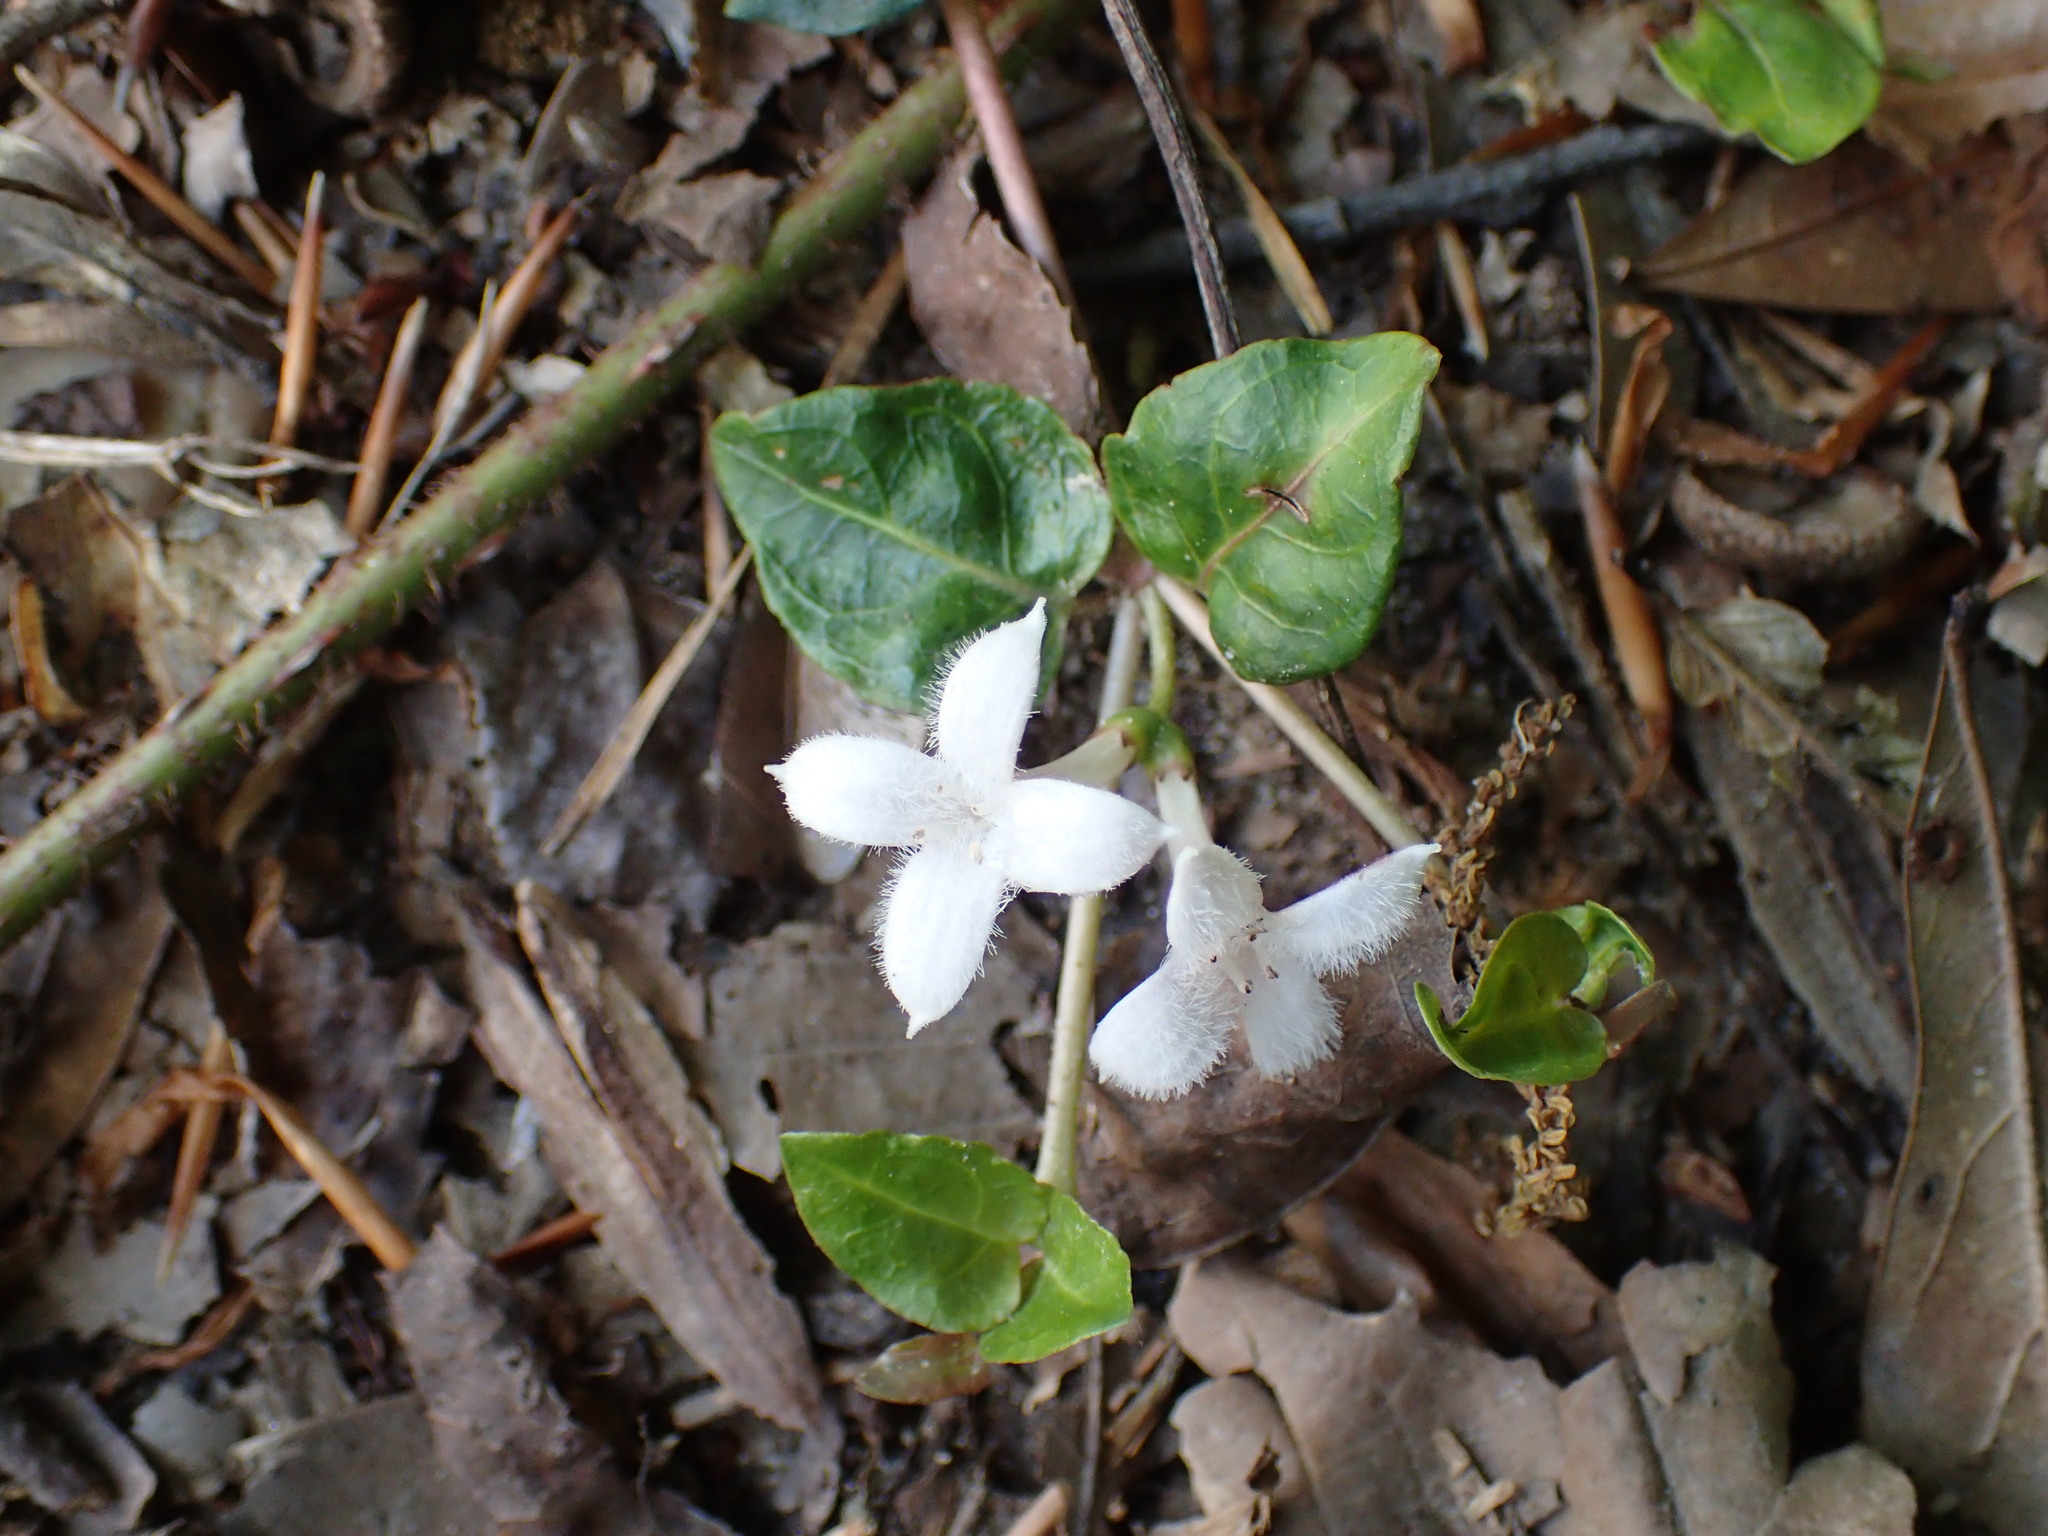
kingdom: Plantae
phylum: Tracheophyta
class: Magnoliopsida
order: Gentianales
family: Rubiaceae
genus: Mitchella
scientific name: Mitchella repens
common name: Partridge-berry
